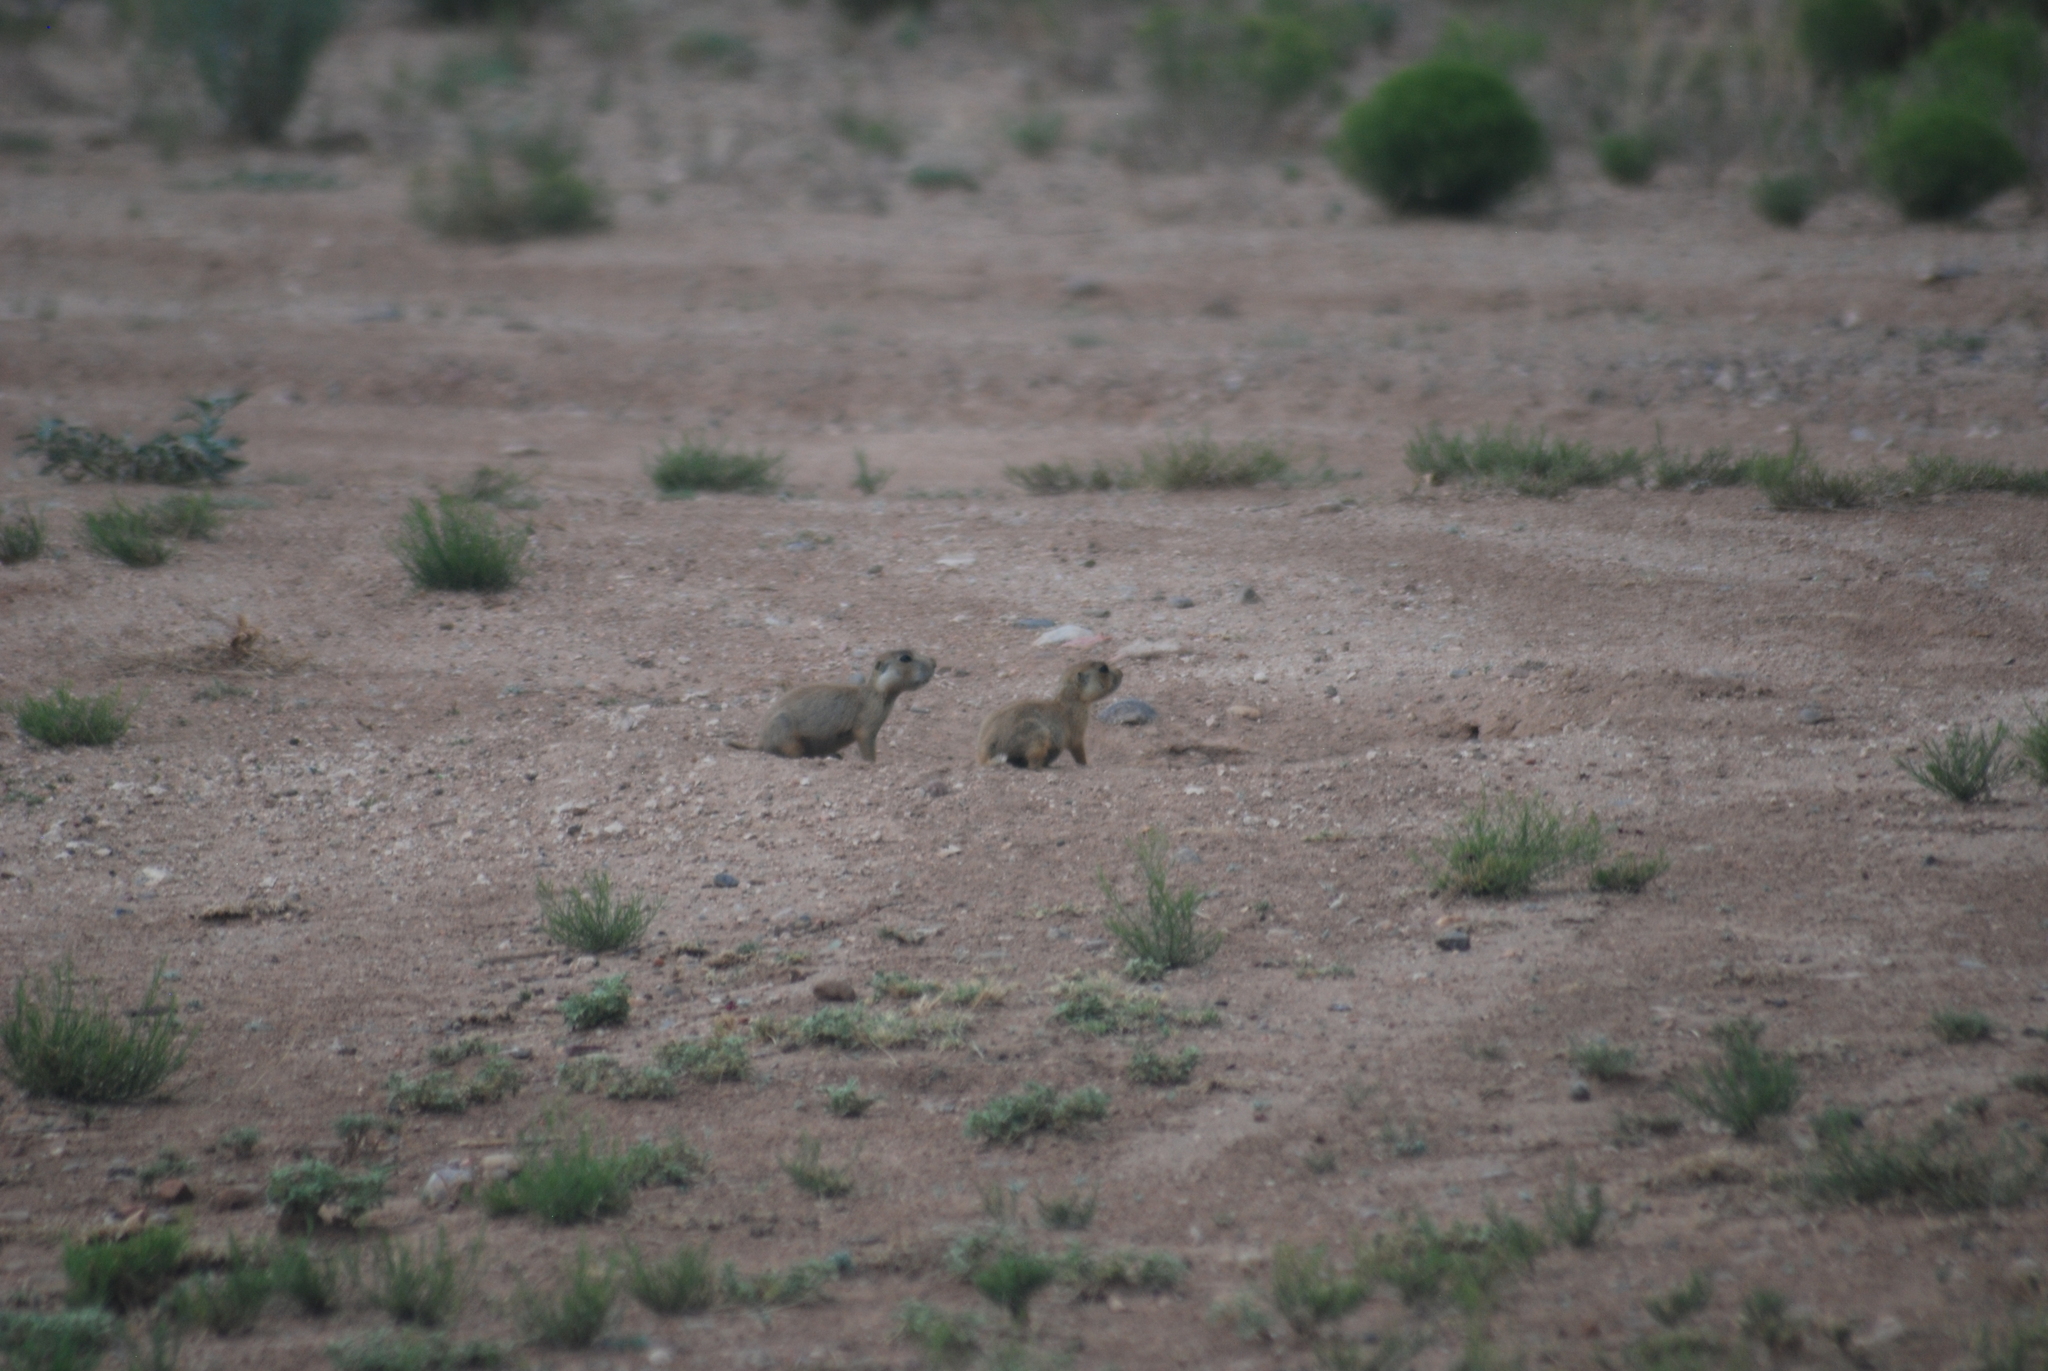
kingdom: Animalia
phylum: Chordata
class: Mammalia
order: Rodentia
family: Sciuridae
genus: Cynomys
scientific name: Cynomys gunnisoni
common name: Gunnison's prairie dog
